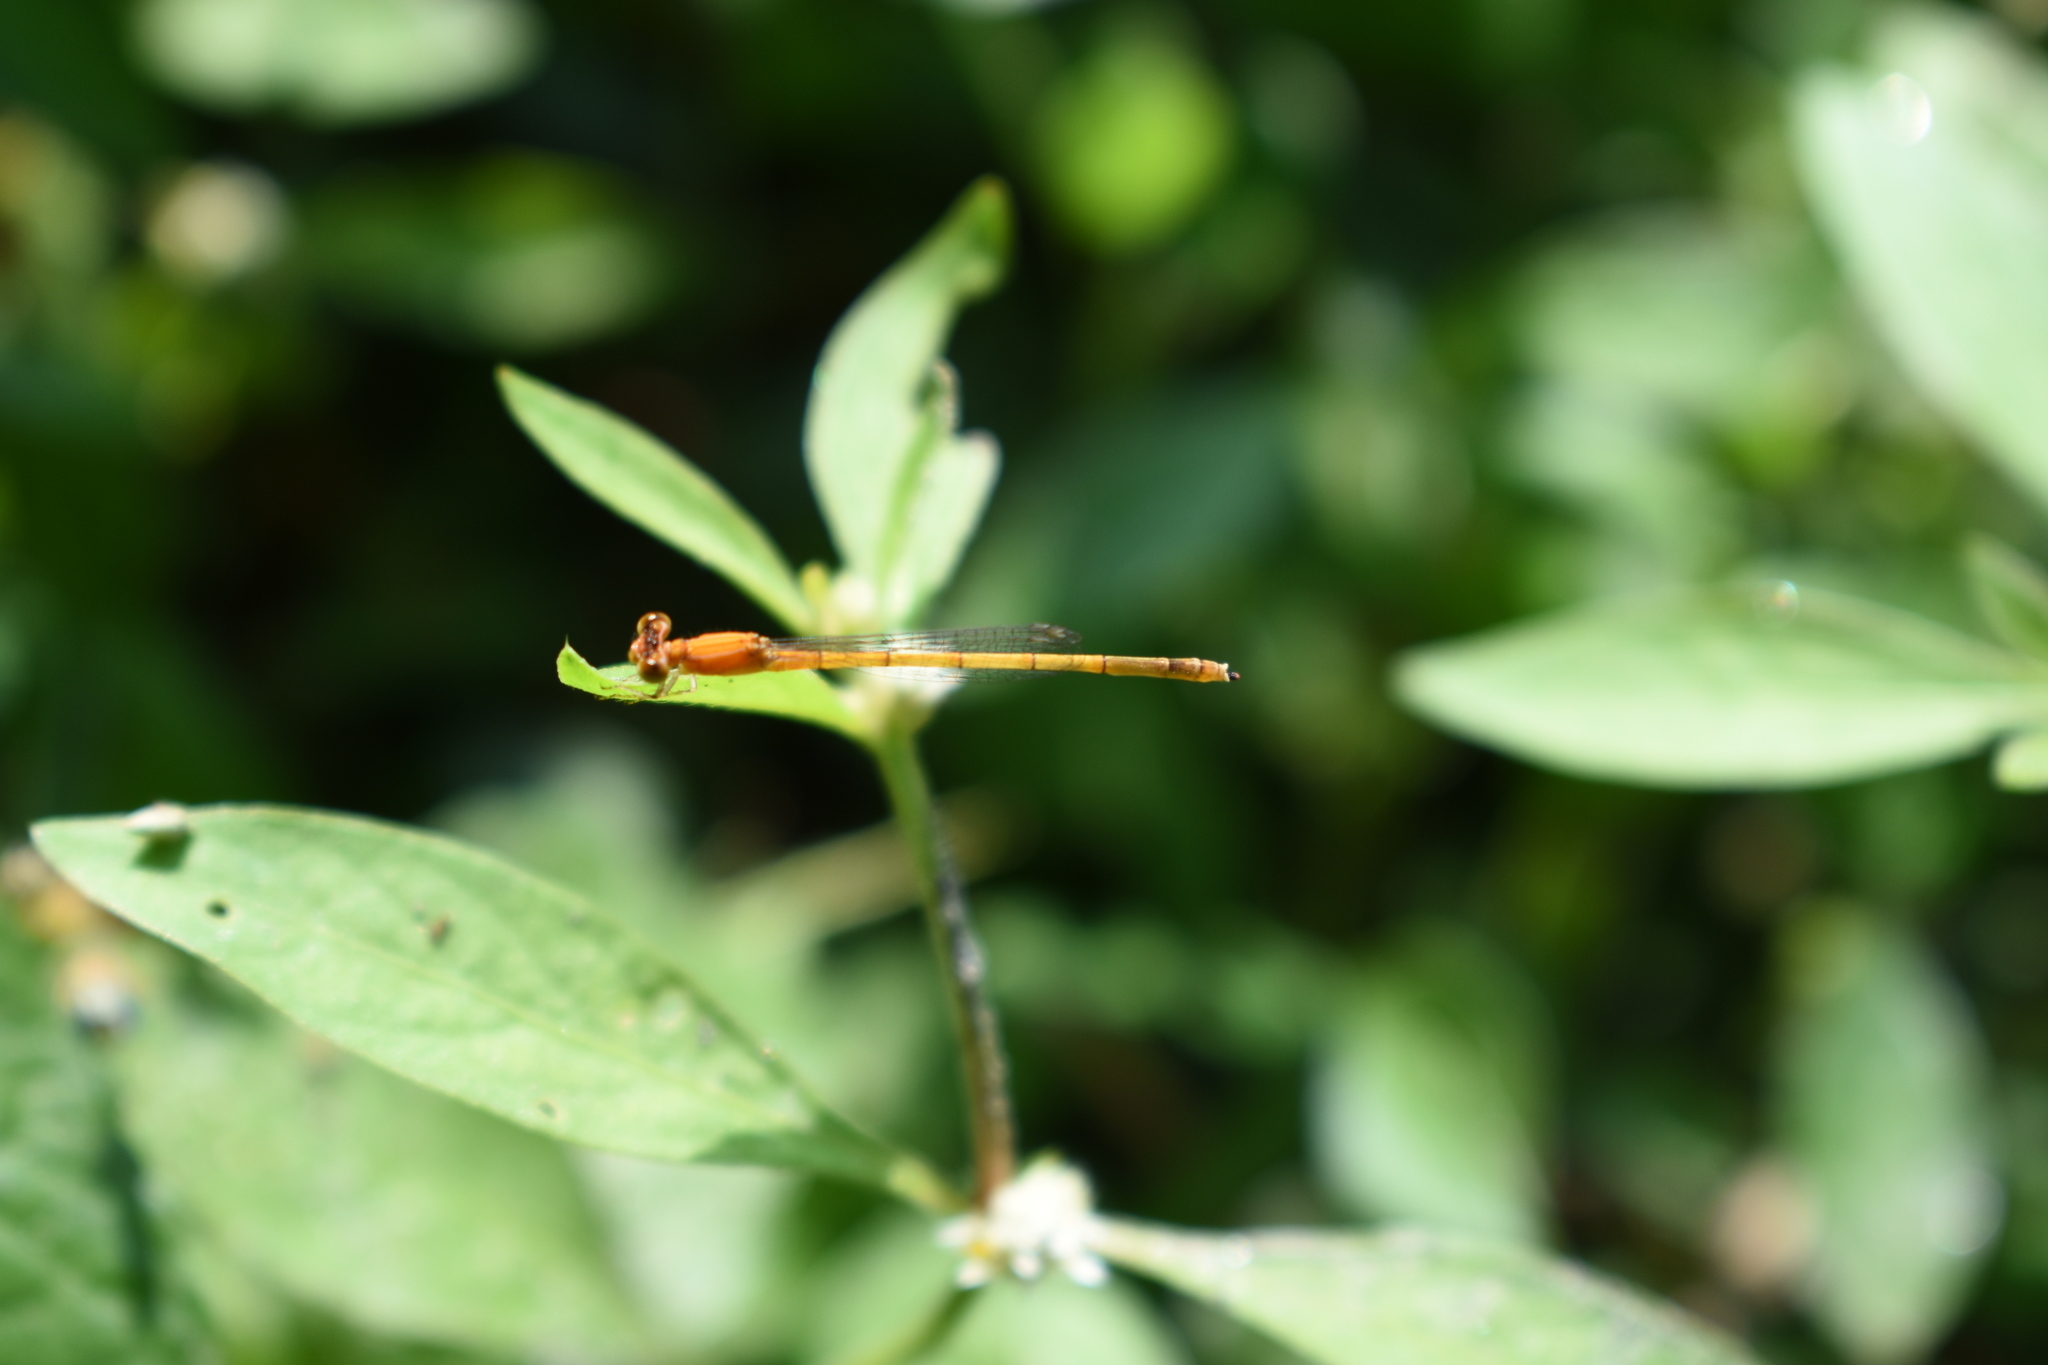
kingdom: Animalia
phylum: Arthropoda
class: Insecta
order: Odonata
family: Coenagrionidae
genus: Agriocnemis
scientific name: Agriocnemis pieris
